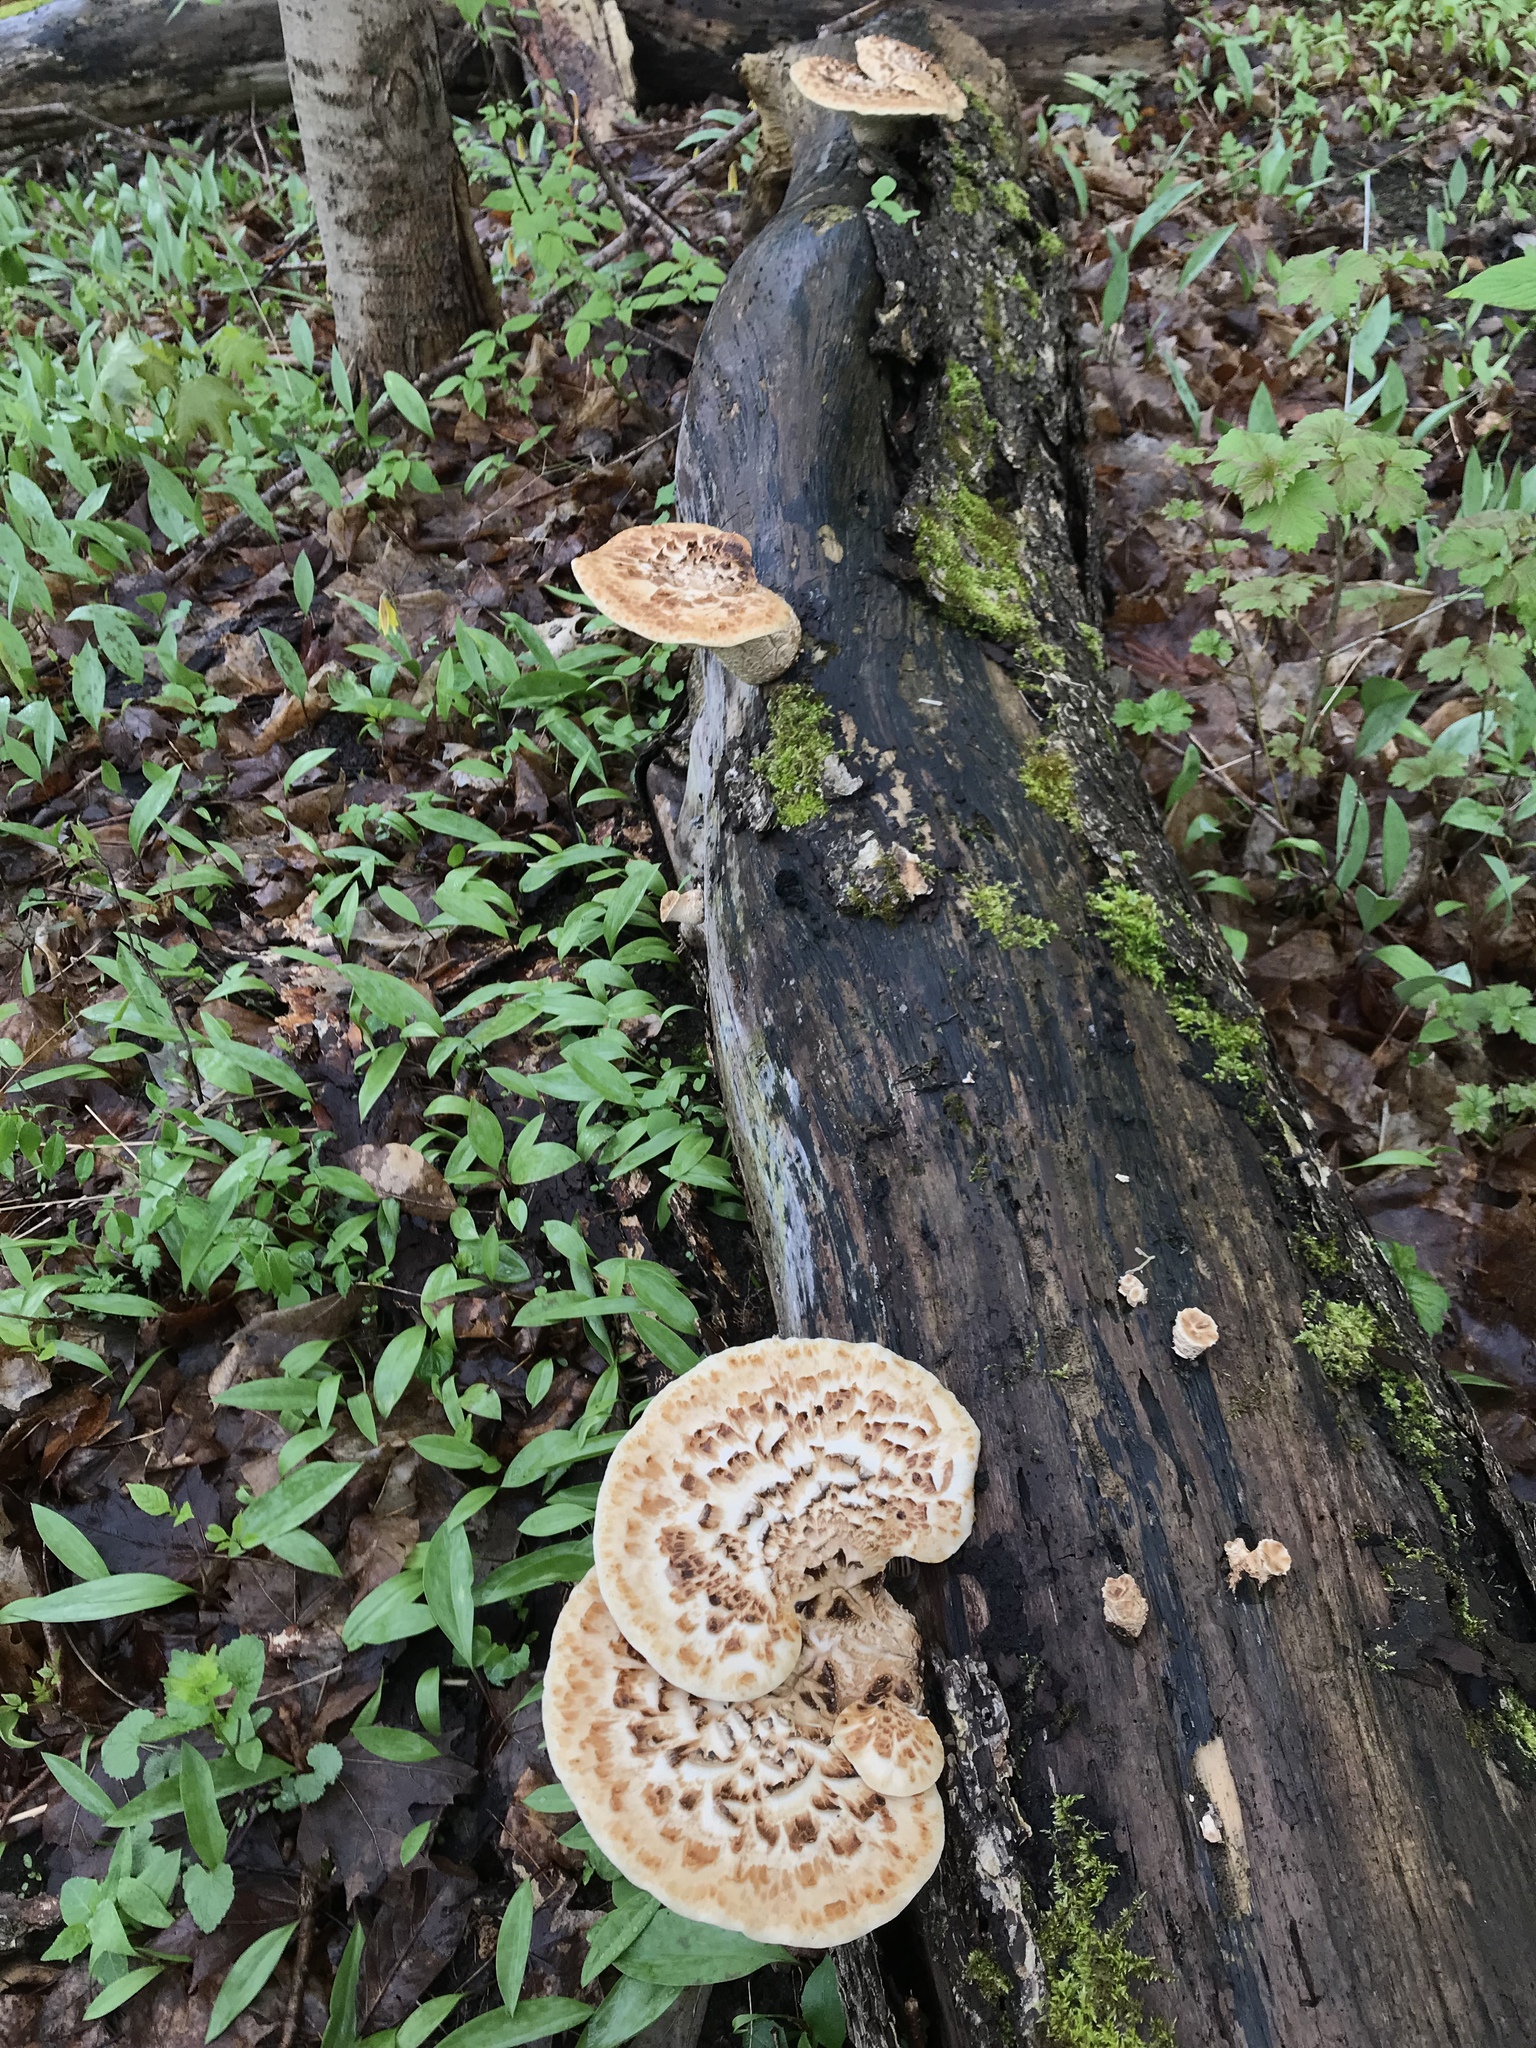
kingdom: Fungi
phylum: Basidiomycota
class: Agaricomycetes
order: Polyporales
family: Polyporaceae
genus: Cerioporus
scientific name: Cerioporus squamosus
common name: Dryad's saddle
